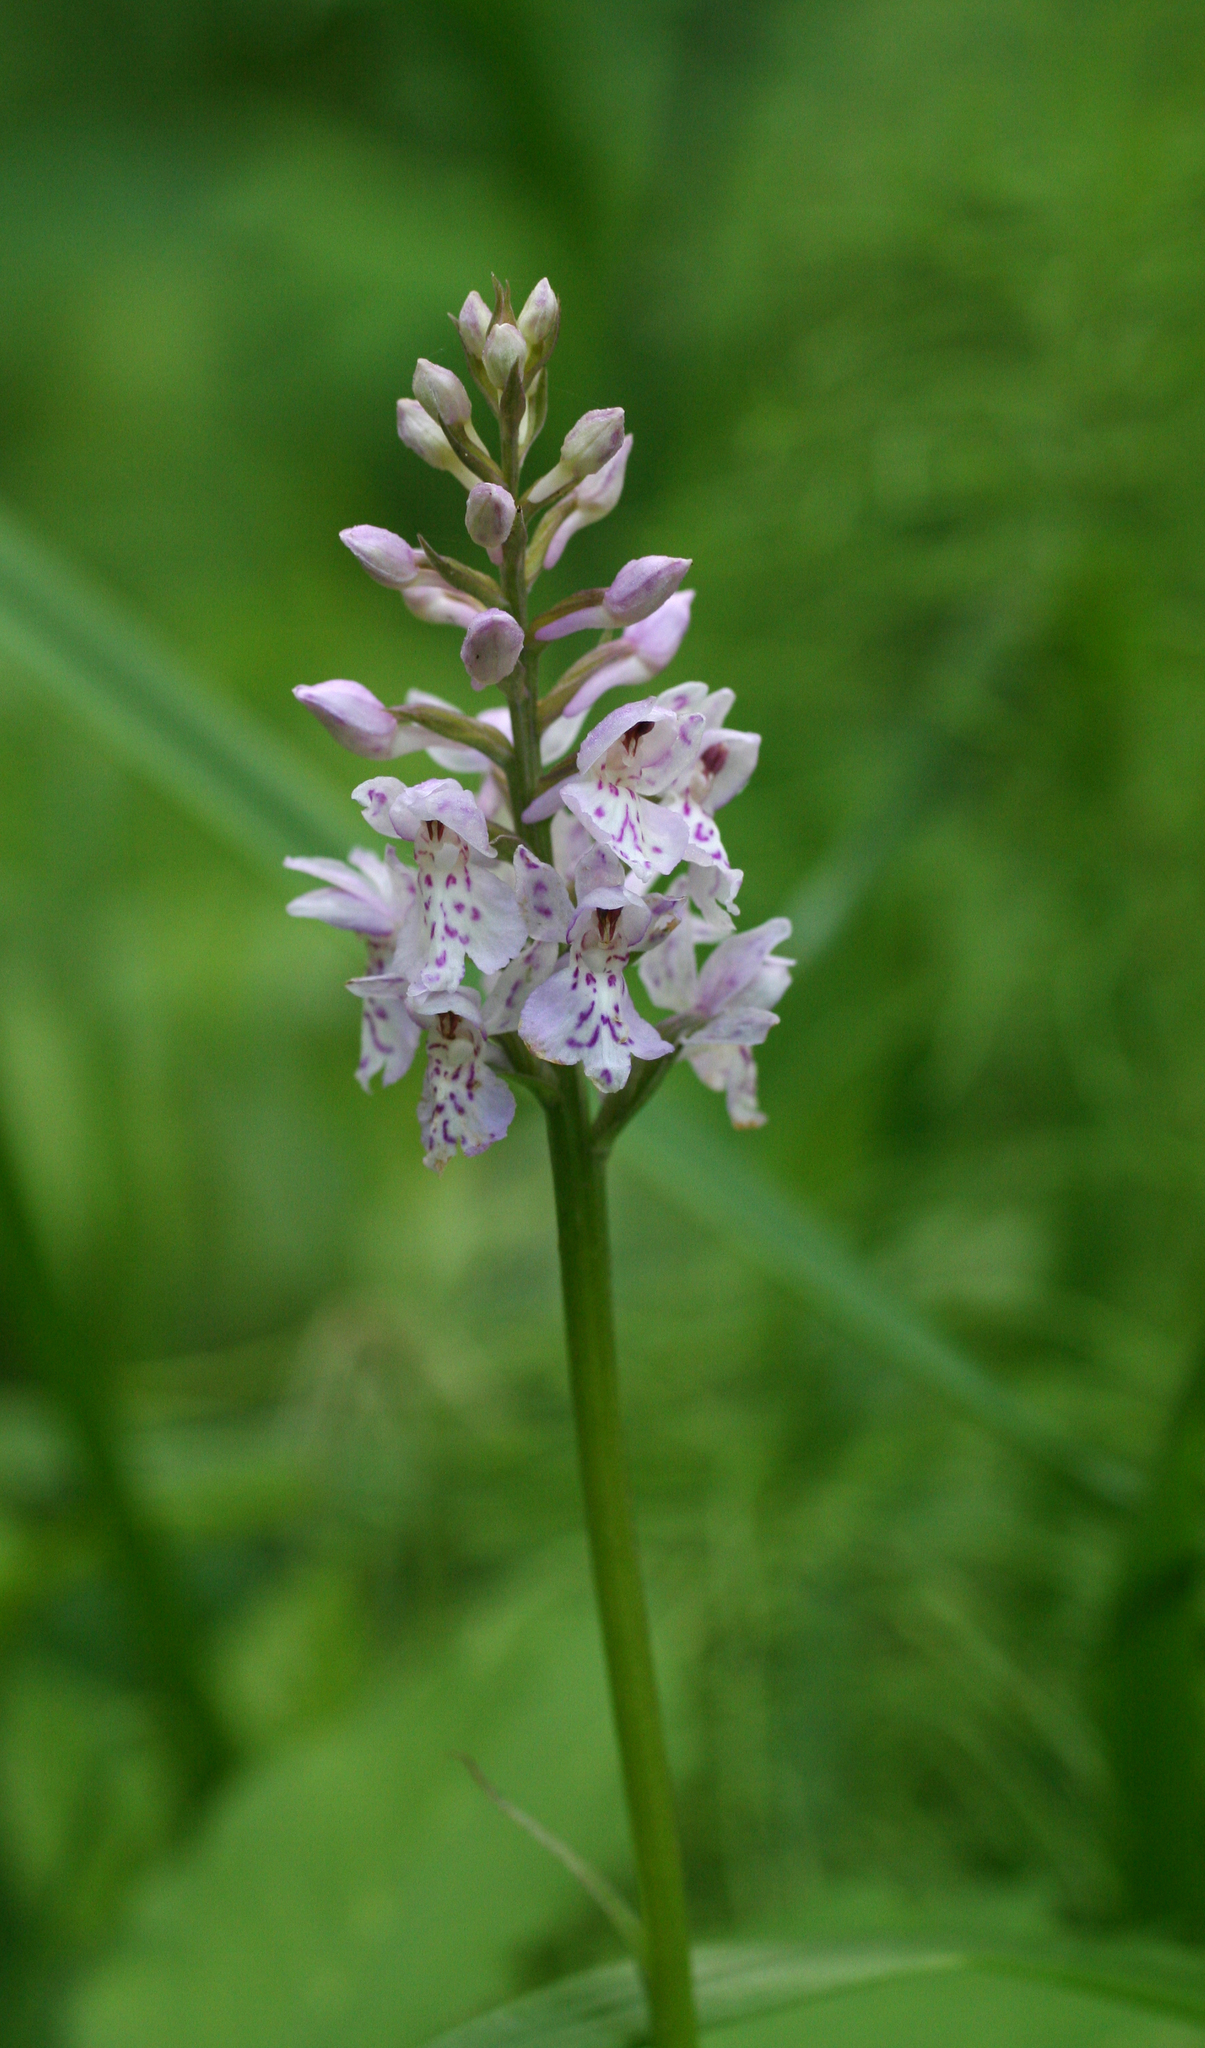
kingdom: Plantae
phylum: Tracheophyta
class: Liliopsida
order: Asparagales
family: Orchidaceae
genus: Dactylorhiza
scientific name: Dactylorhiza maculata
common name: Heath spotted-orchid
